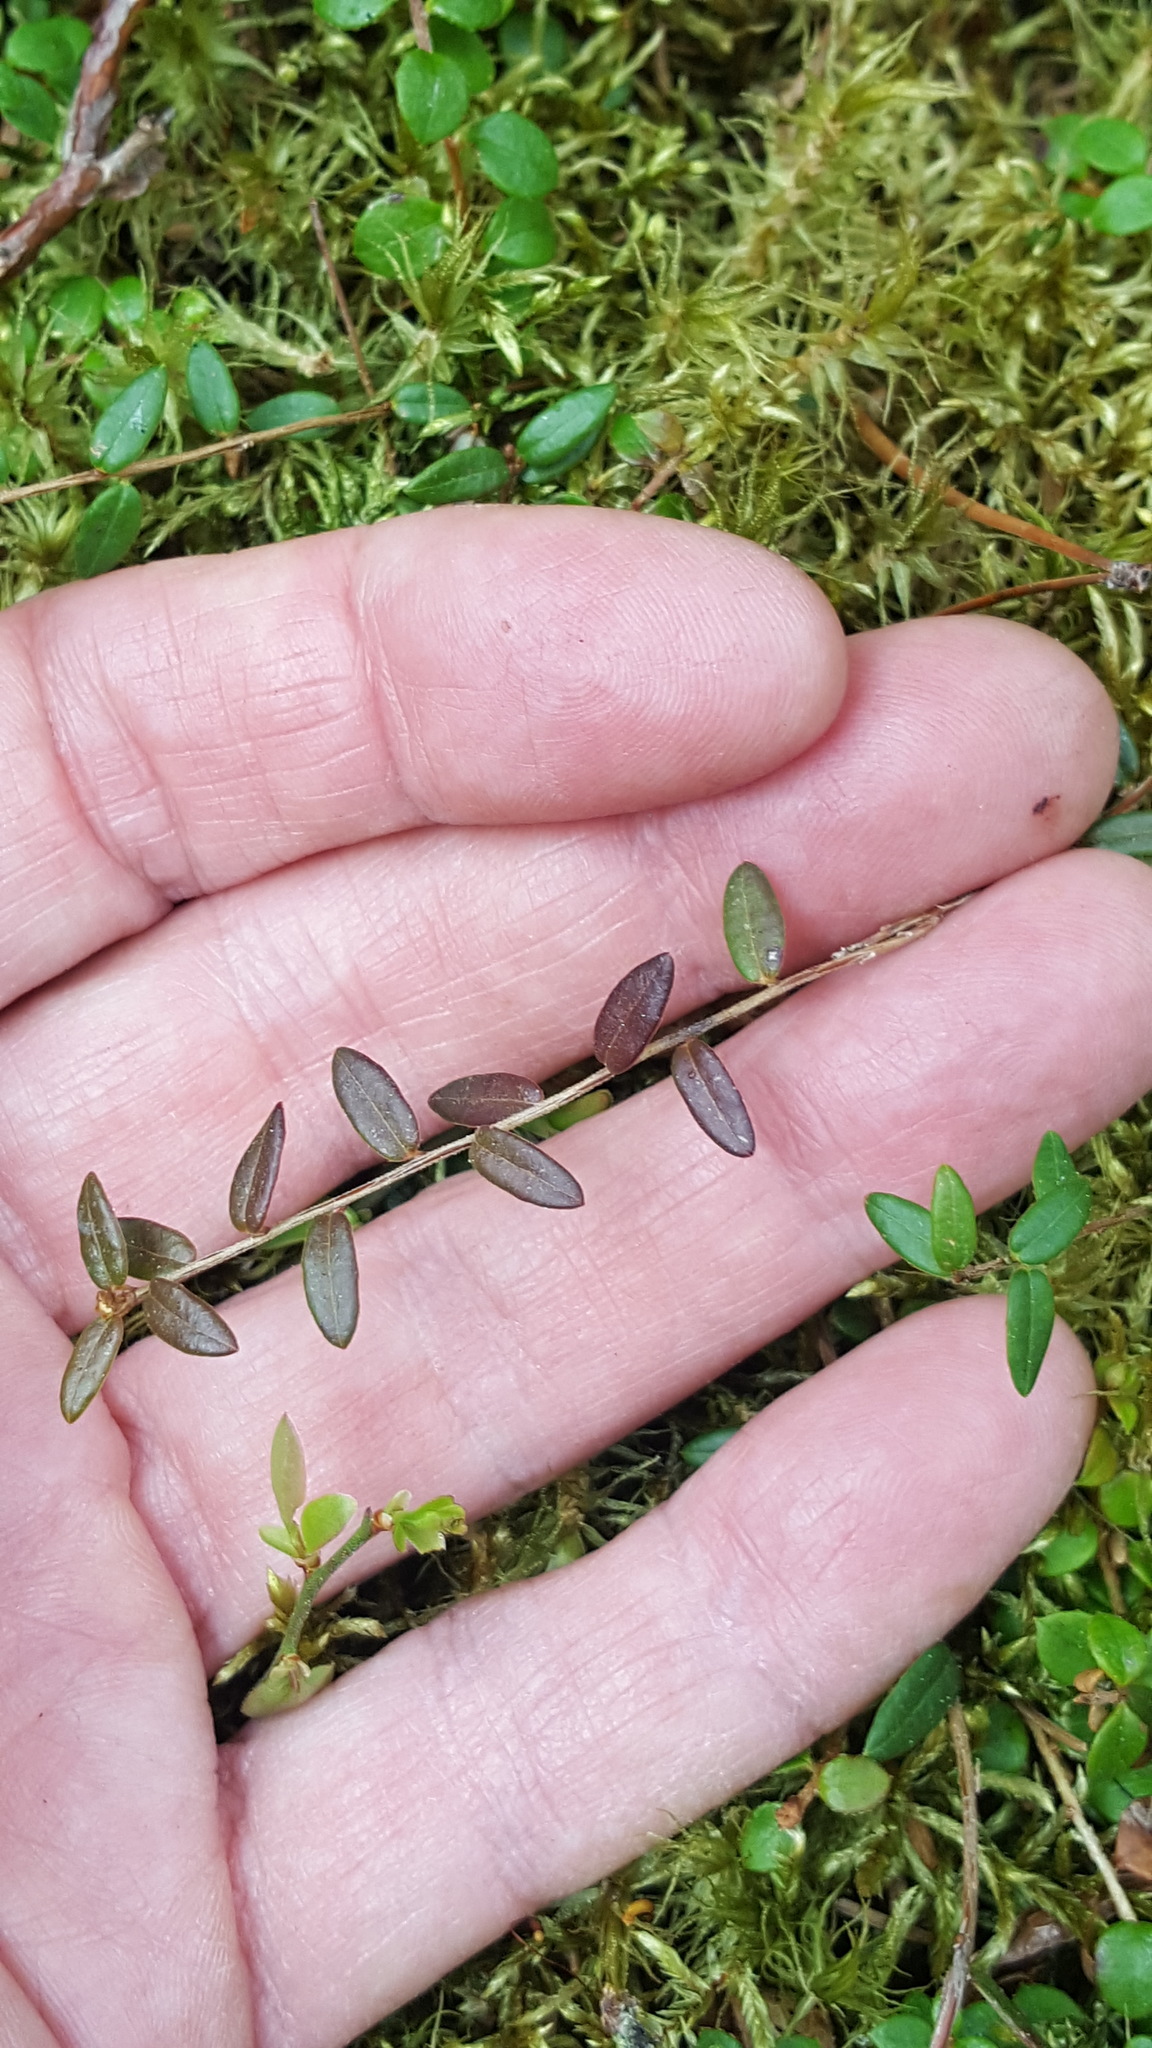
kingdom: Plantae
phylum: Tracheophyta
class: Magnoliopsida
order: Ericales
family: Ericaceae
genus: Vaccinium
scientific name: Vaccinium oxycoccos
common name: Cranberry
